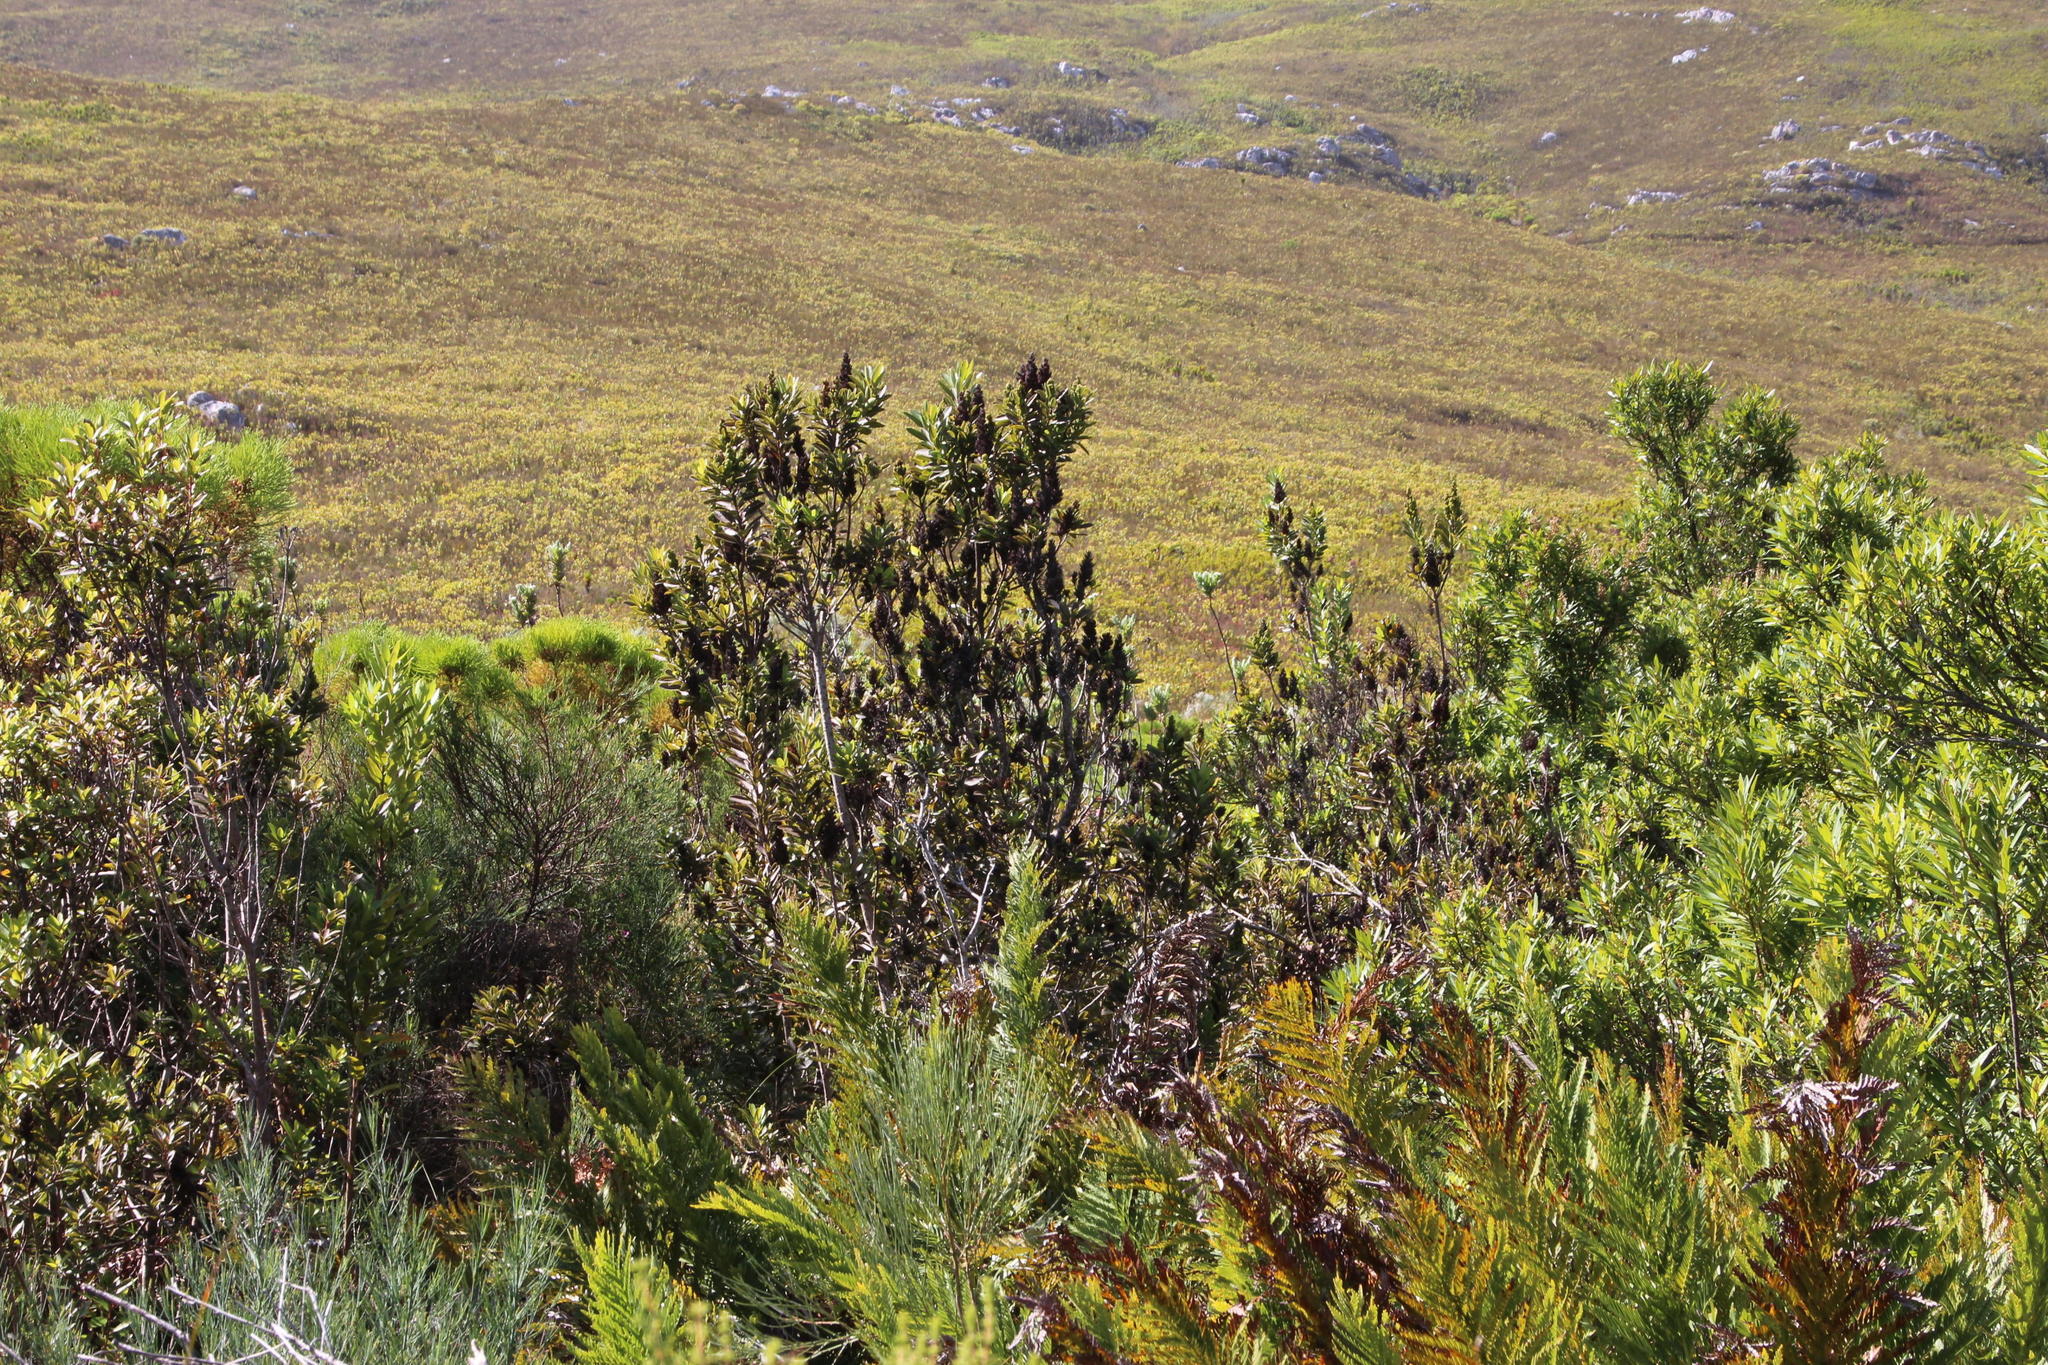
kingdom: Plantae
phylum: Tracheophyta
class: Magnoliopsida
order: Sapindales
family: Anacardiaceae
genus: Laurophyllus
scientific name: Laurophyllus capensis
